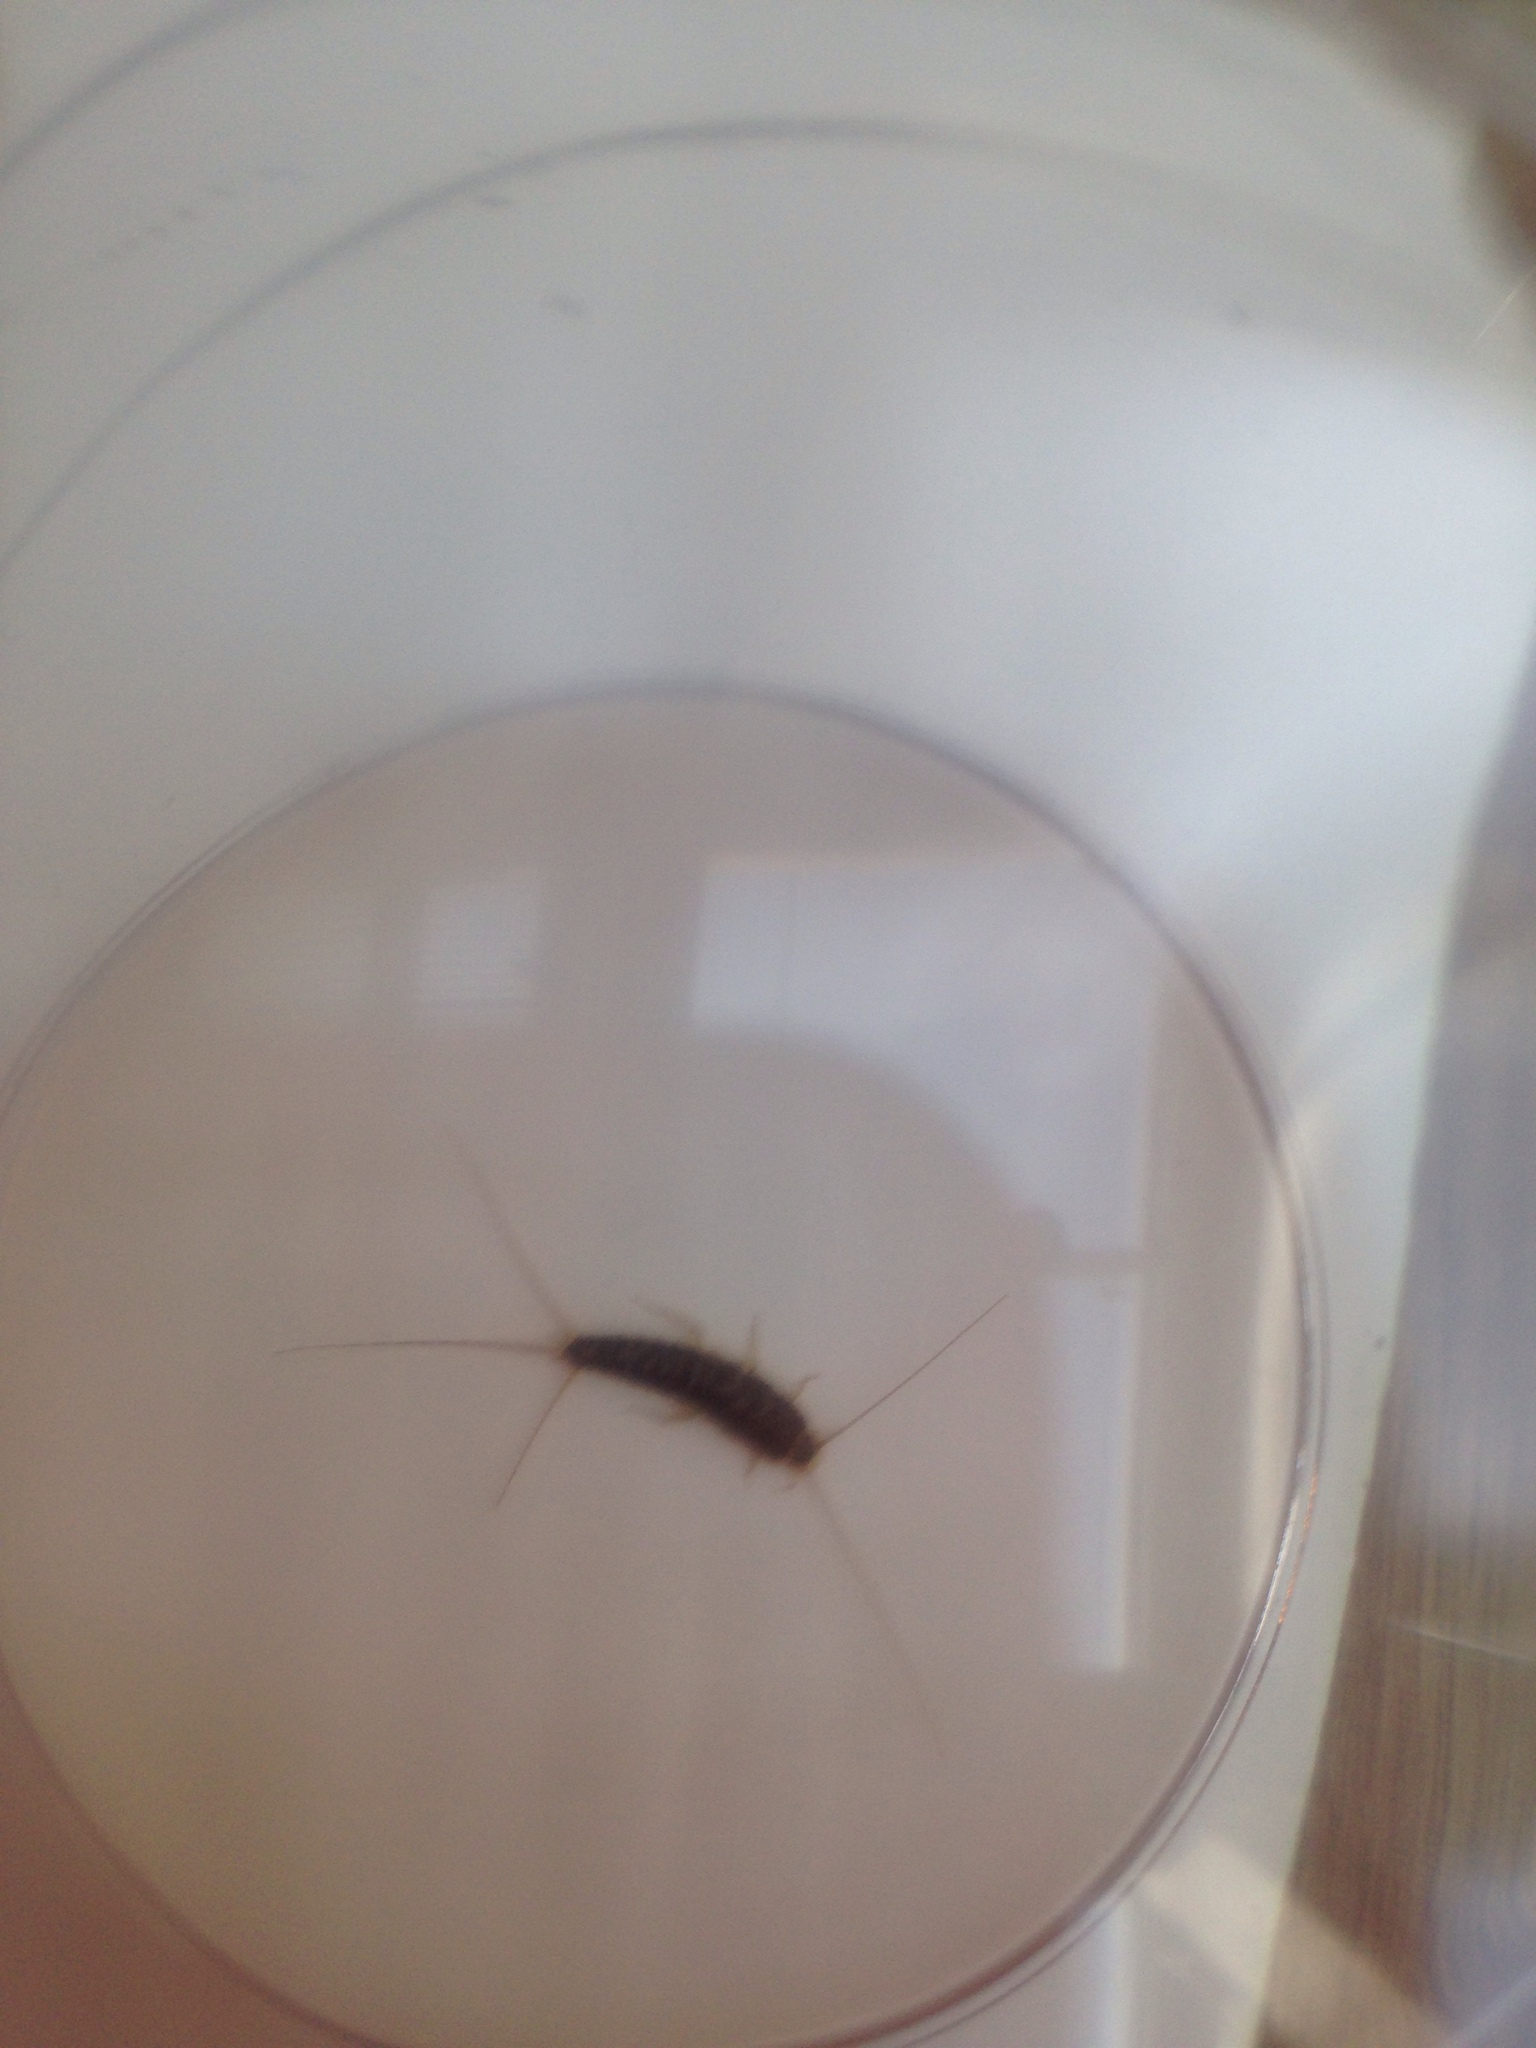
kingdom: Animalia
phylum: Arthropoda
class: Insecta
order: Zygentoma
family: Lepismatidae
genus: Ctenolepisma
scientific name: Ctenolepisma longicaudatum
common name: Silverfish
